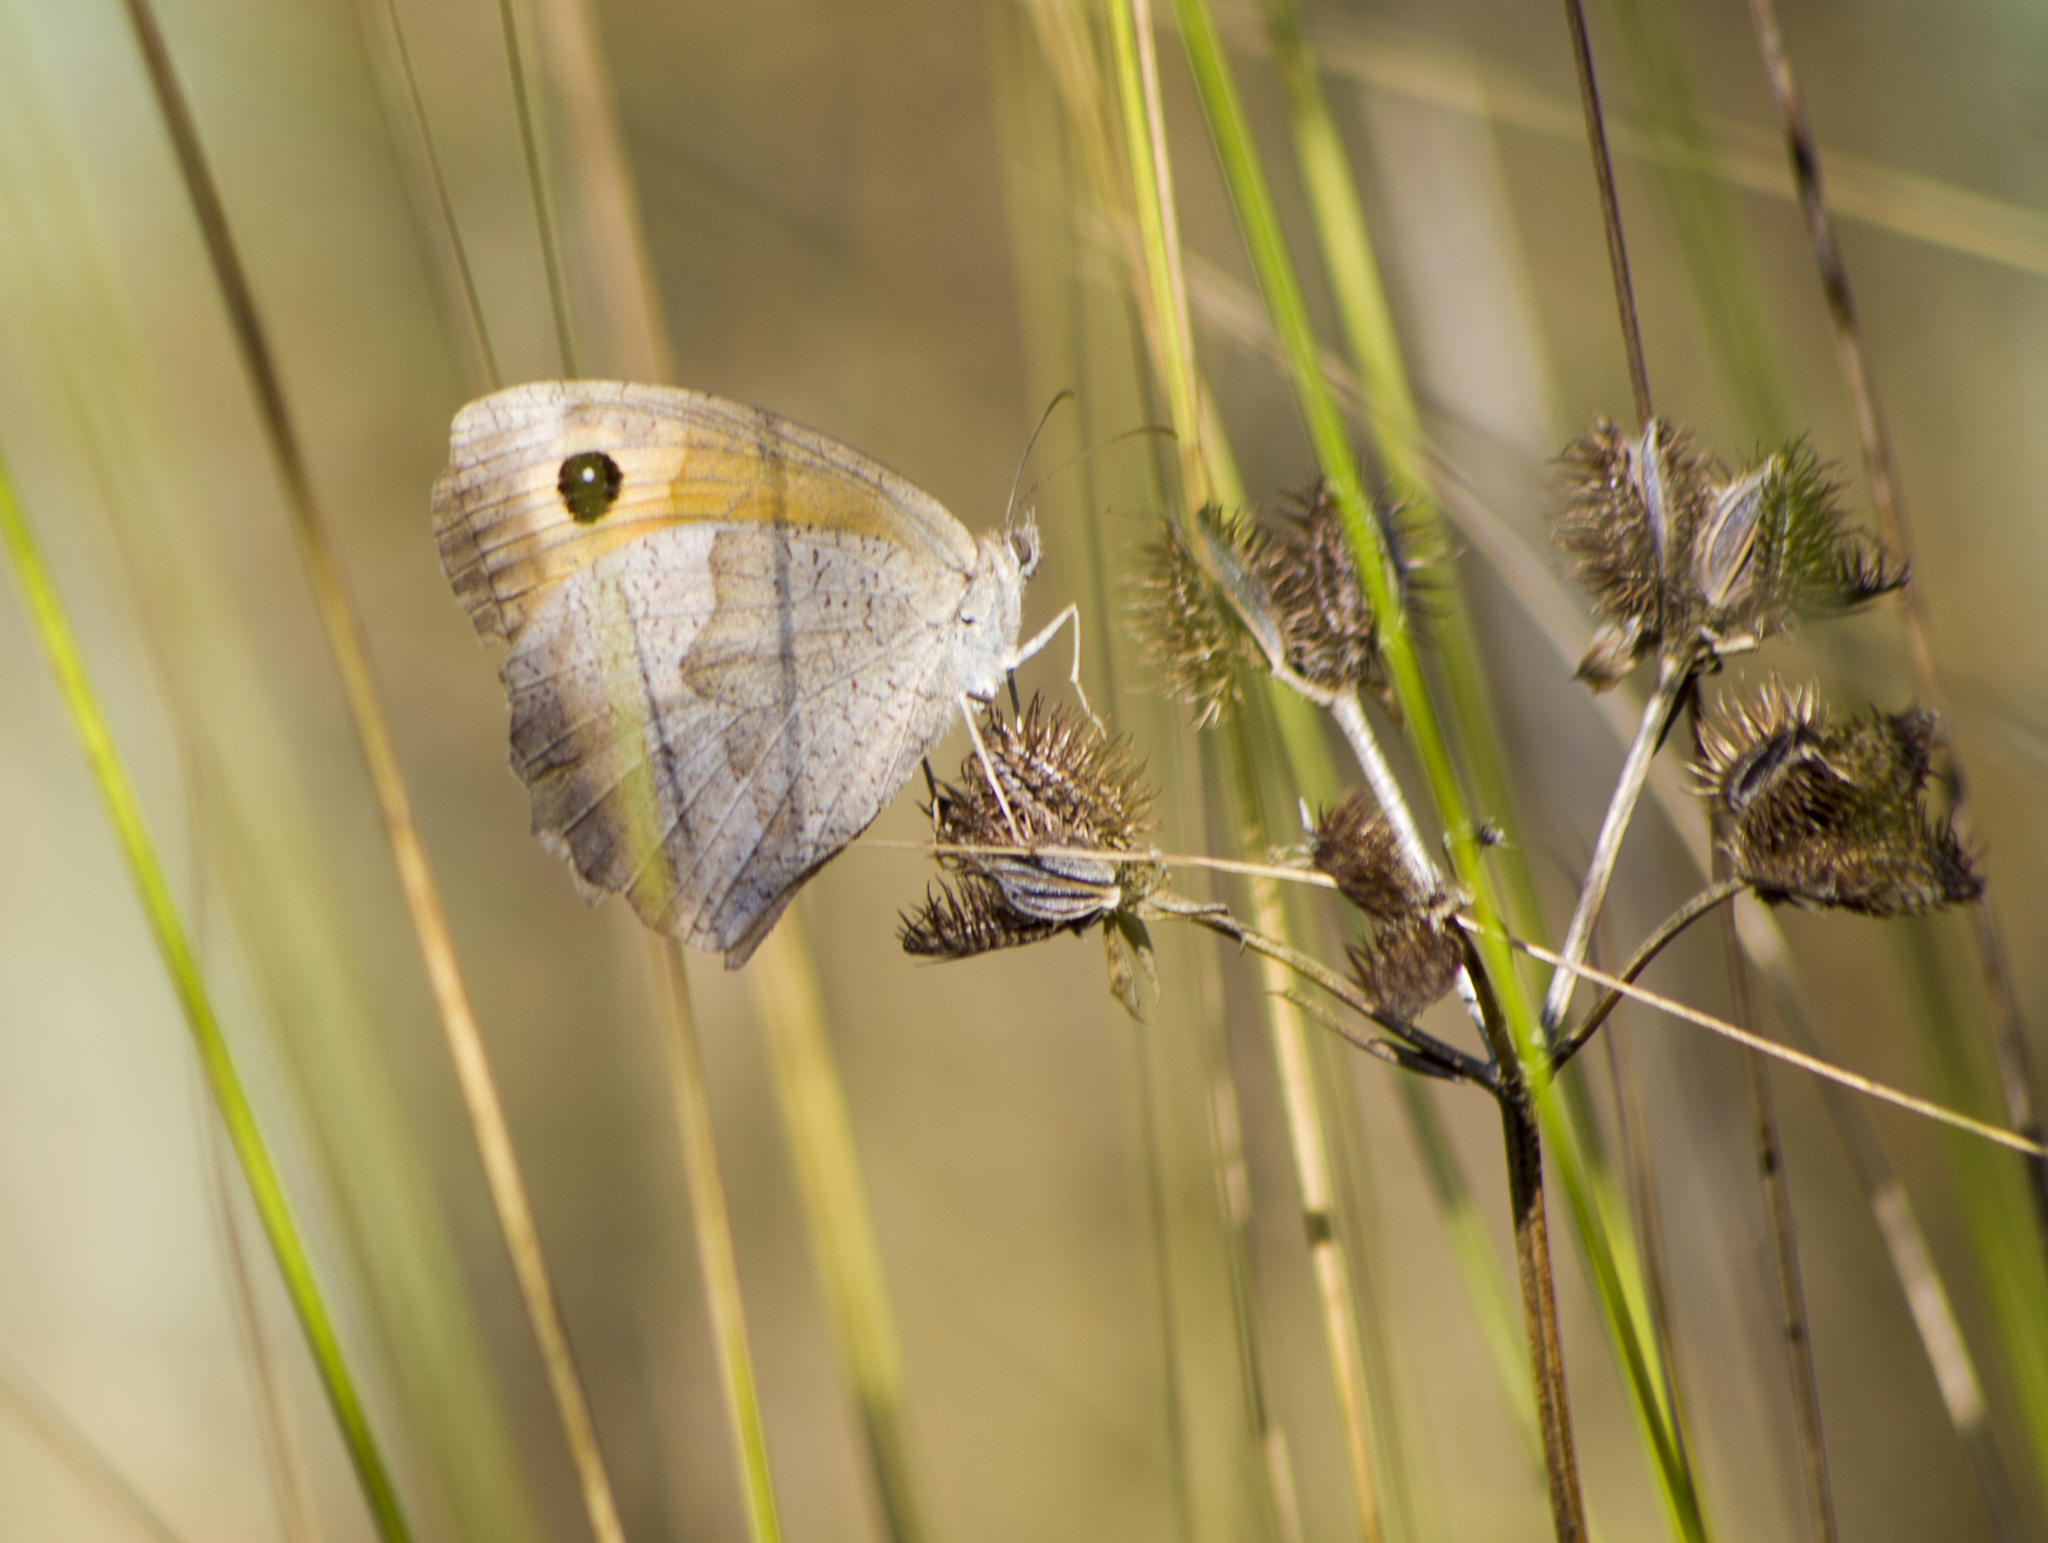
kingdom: Animalia
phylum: Arthropoda
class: Insecta
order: Lepidoptera
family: Nymphalidae
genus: Maniola
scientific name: Maniola jurtina
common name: Meadow brown
